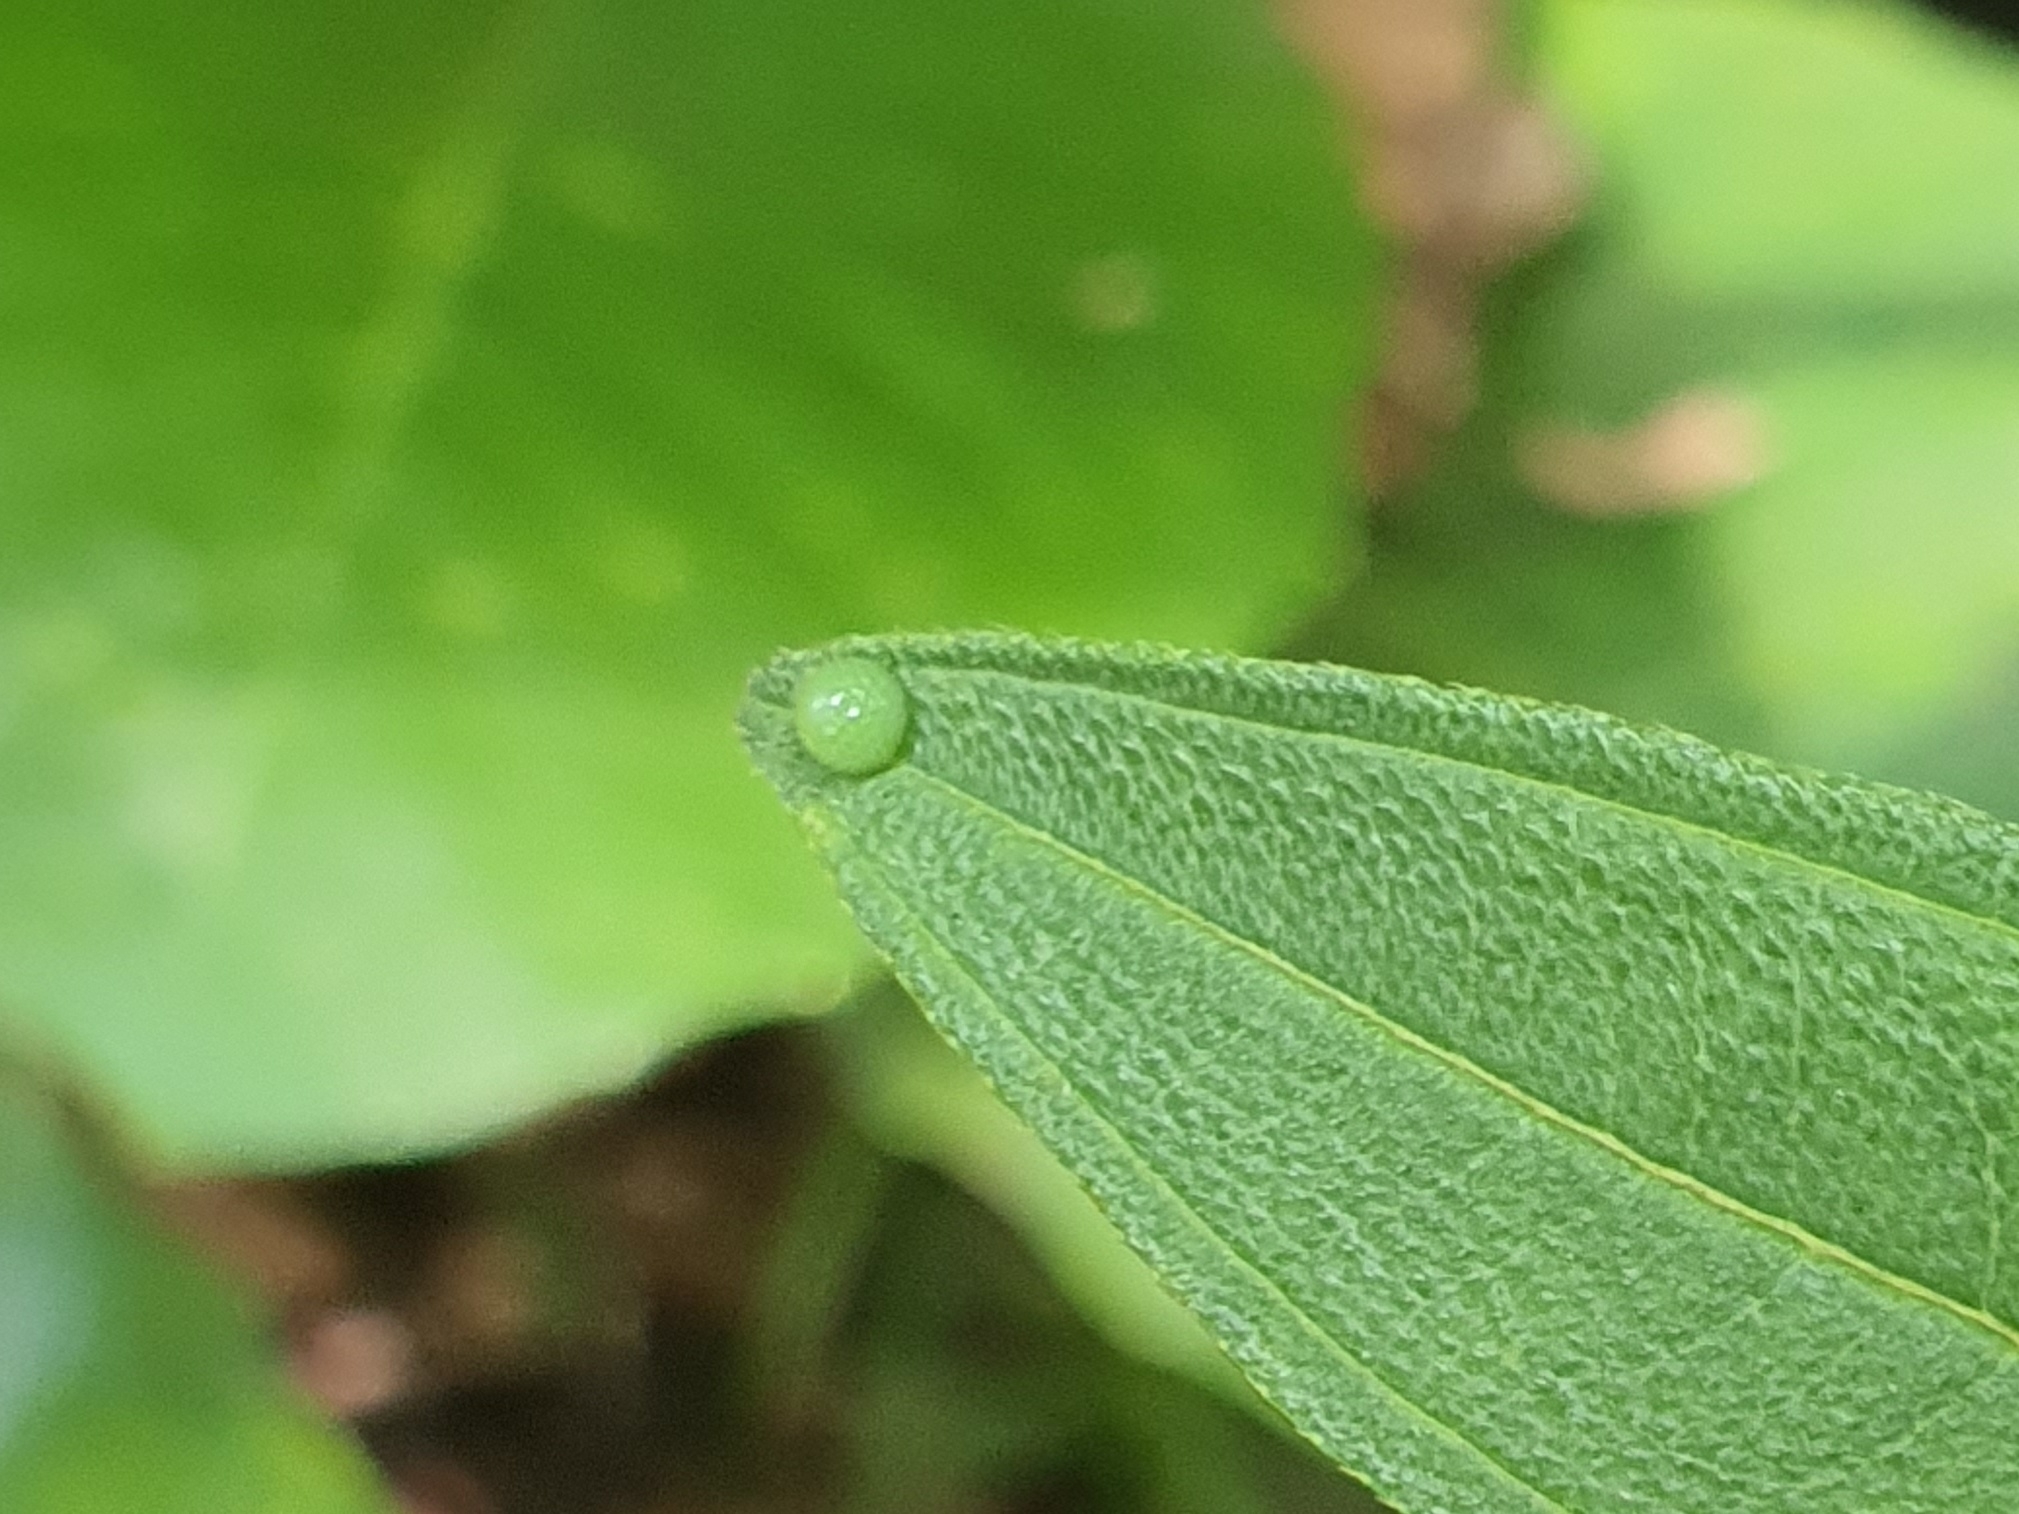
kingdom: Animalia
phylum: Arthropoda
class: Insecta
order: Lepidoptera
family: Nymphalidae
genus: Tanaecia
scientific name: Tanaecia iapis
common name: Horsfield's baron
